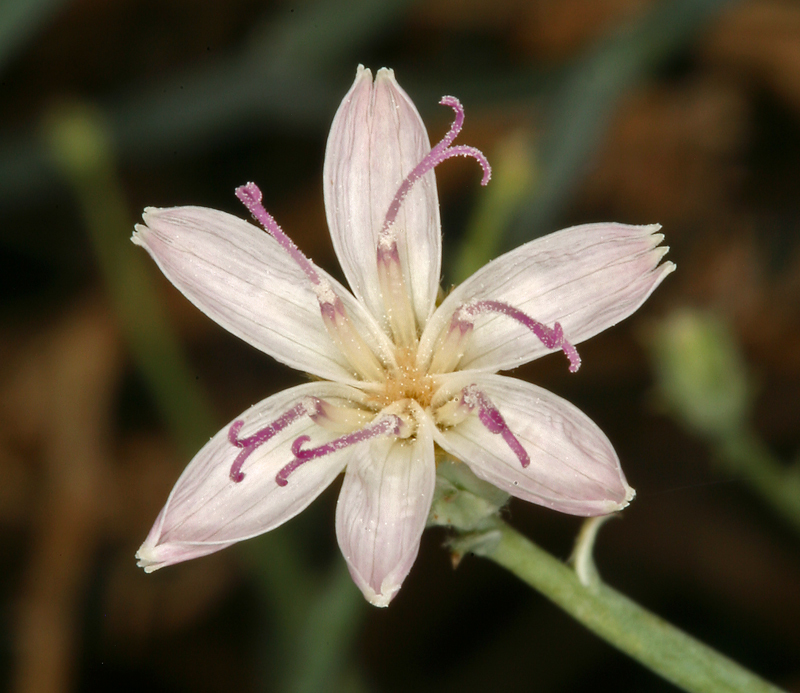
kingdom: Plantae
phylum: Tracheophyta
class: Magnoliopsida
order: Asterales
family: Asteraceae
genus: Stephanomeria
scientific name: Stephanomeria pauciflora
